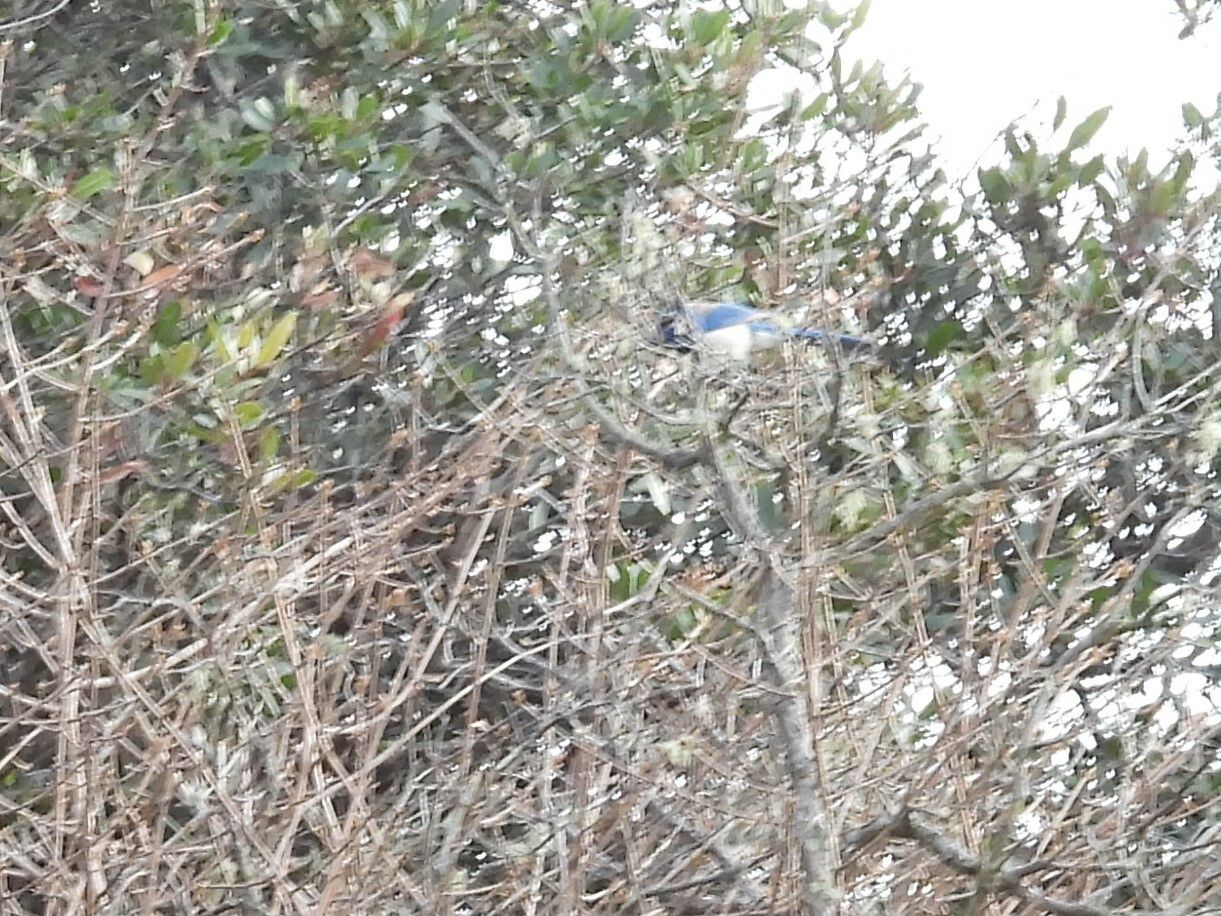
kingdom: Animalia
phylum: Chordata
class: Aves
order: Passeriformes
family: Corvidae
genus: Aphelocoma
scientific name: Aphelocoma californica
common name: California scrub-jay
